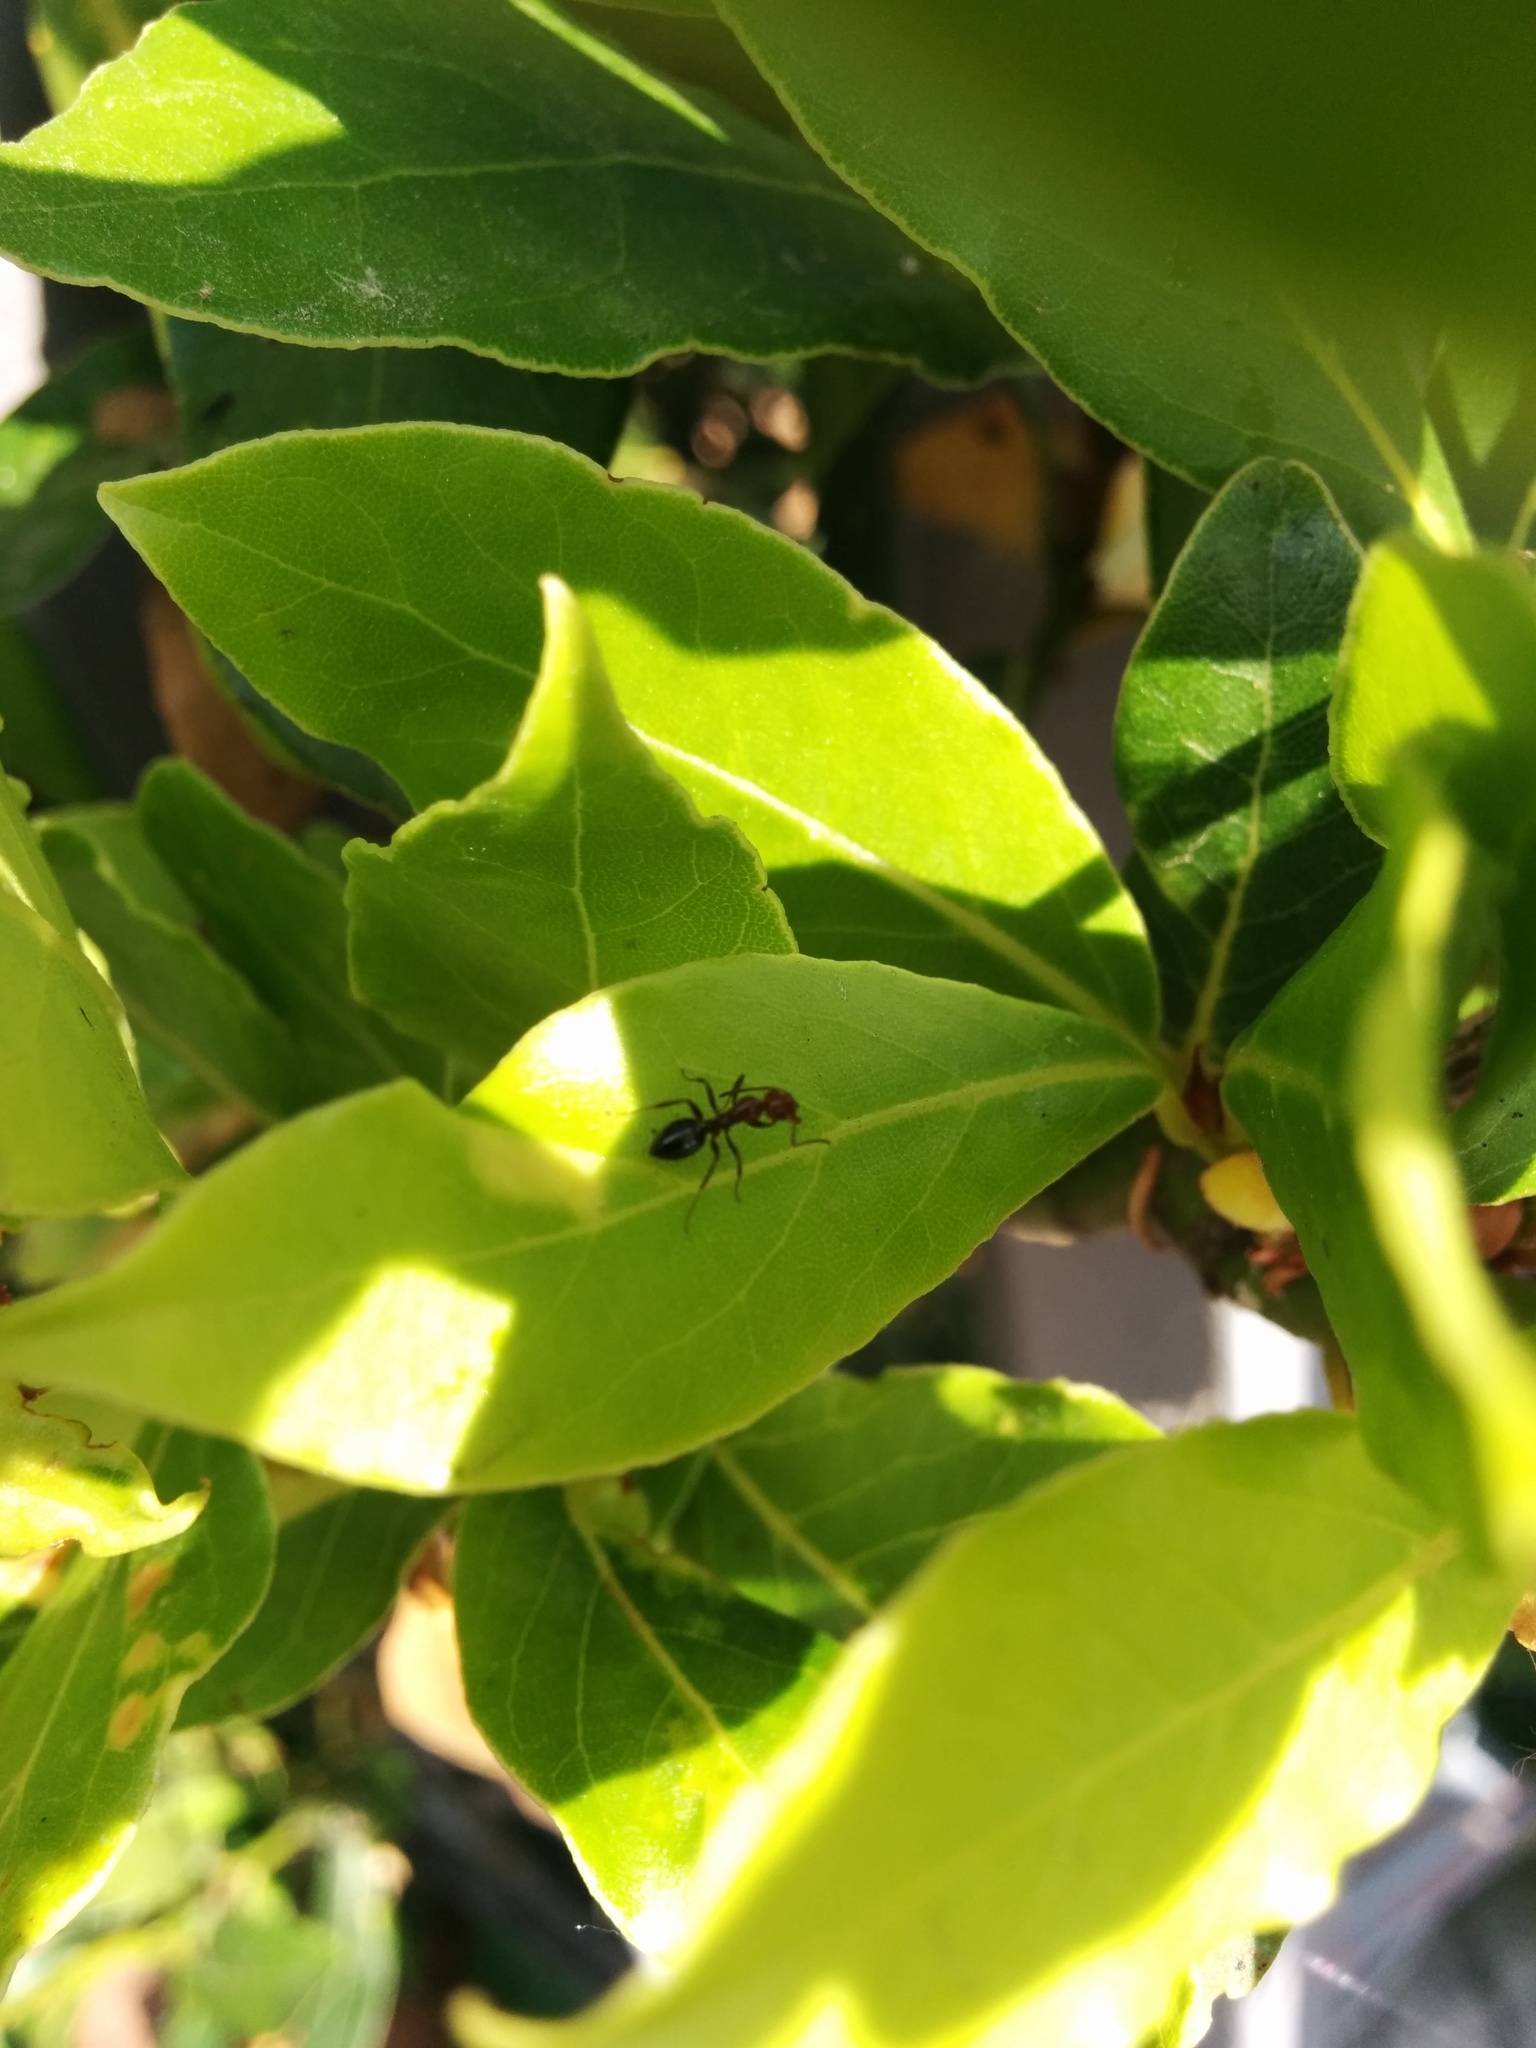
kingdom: Animalia
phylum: Arthropoda
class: Insecta
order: Hymenoptera
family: Formicidae
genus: Camponotus
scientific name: Camponotus lateralis
